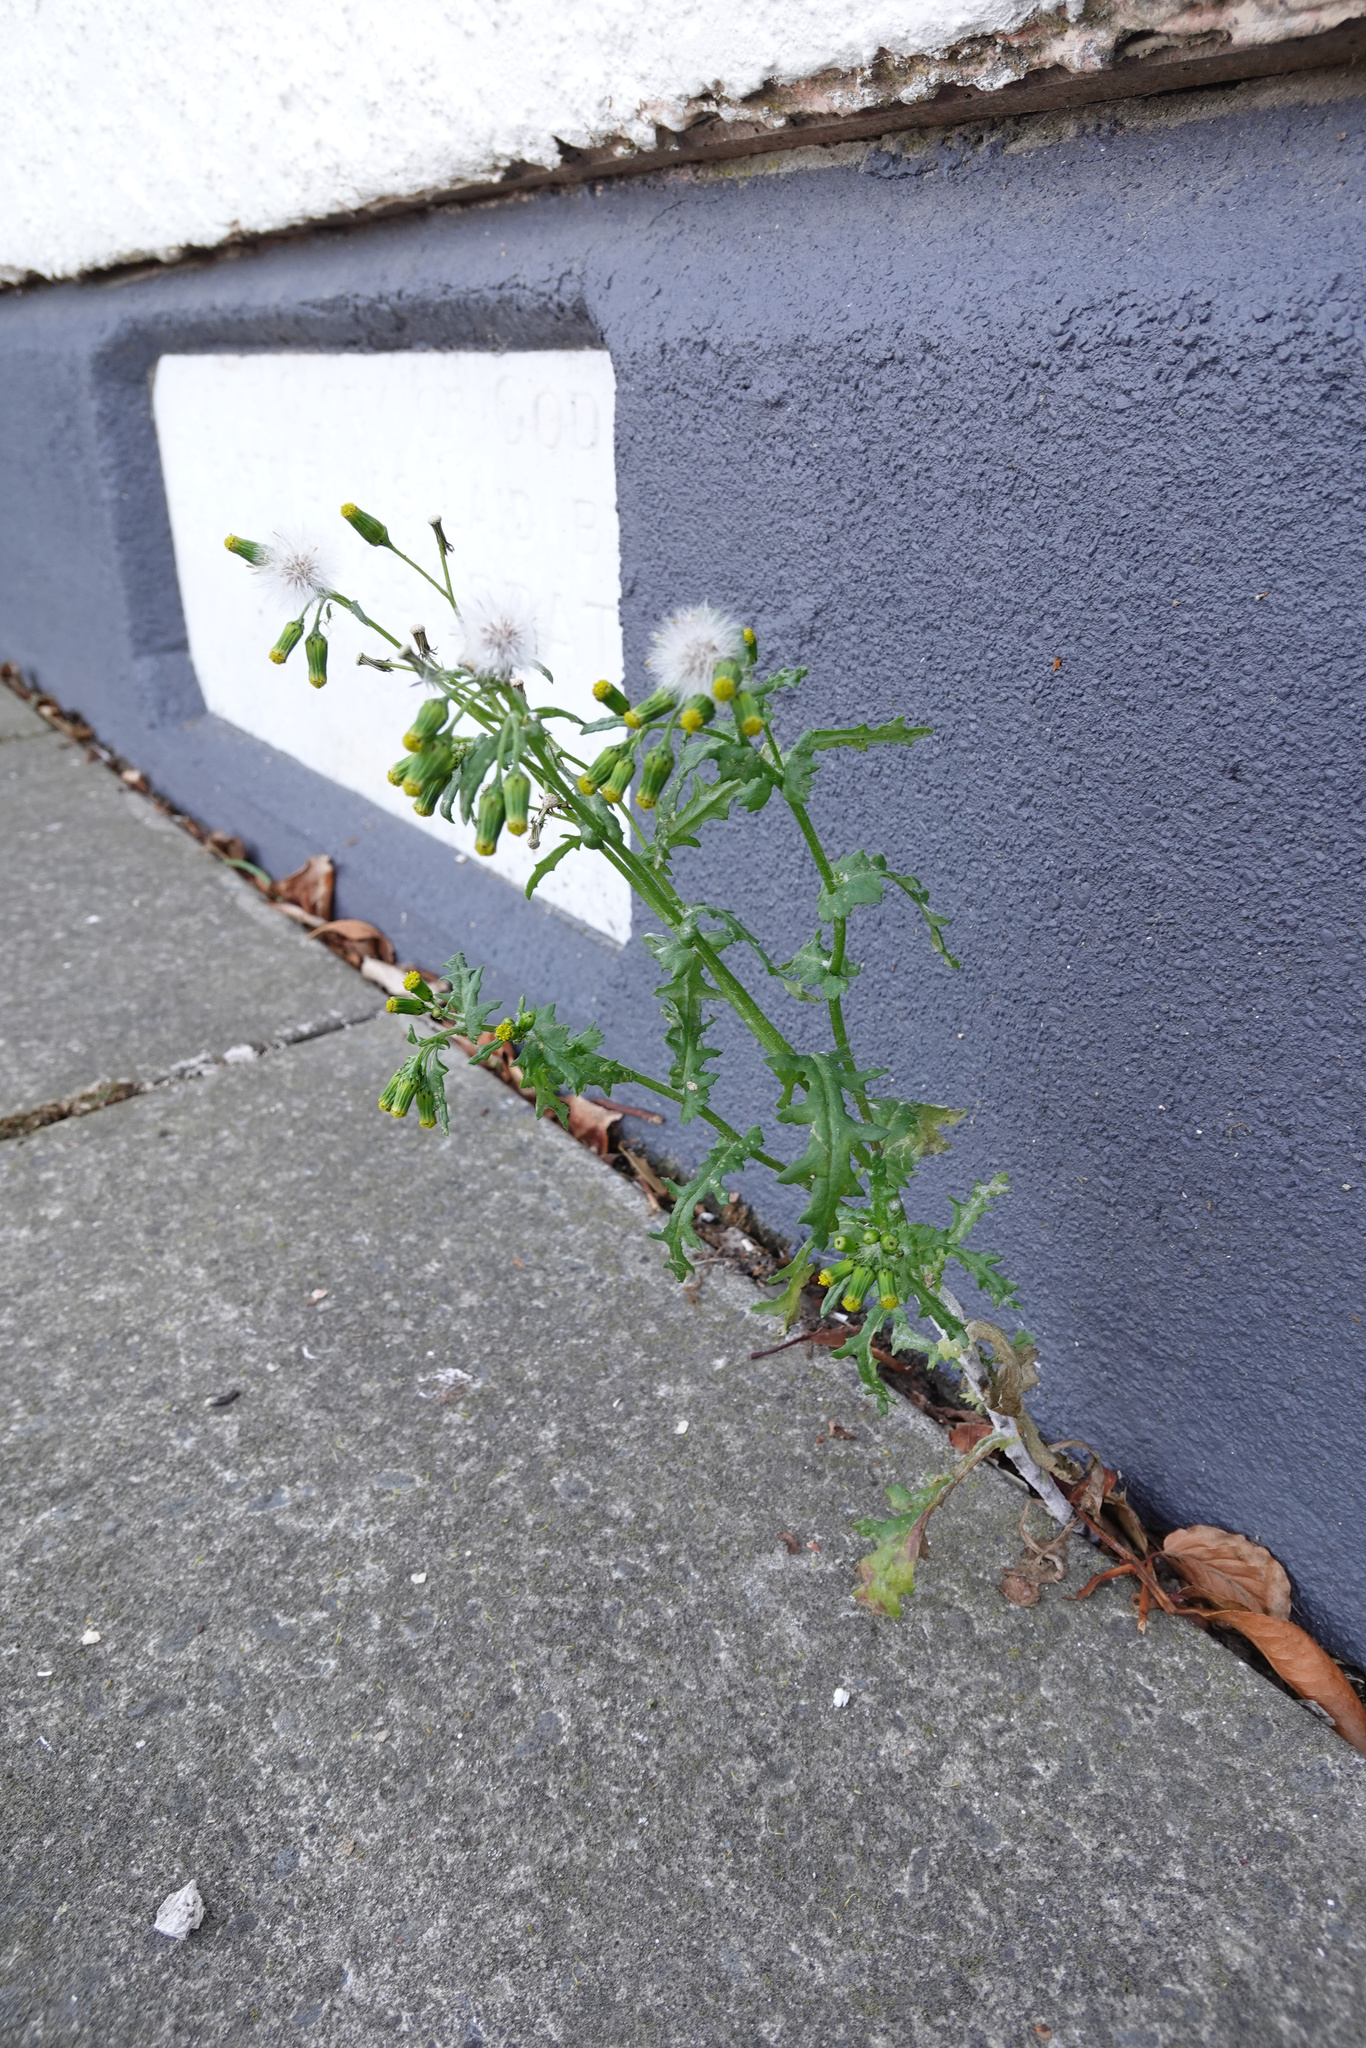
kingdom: Plantae
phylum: Tracheophyta
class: Magnoliopsida
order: Asterales
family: Asteraceae
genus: Senecio
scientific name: Senecio vulgaris
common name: Old-man-in-the-spring
